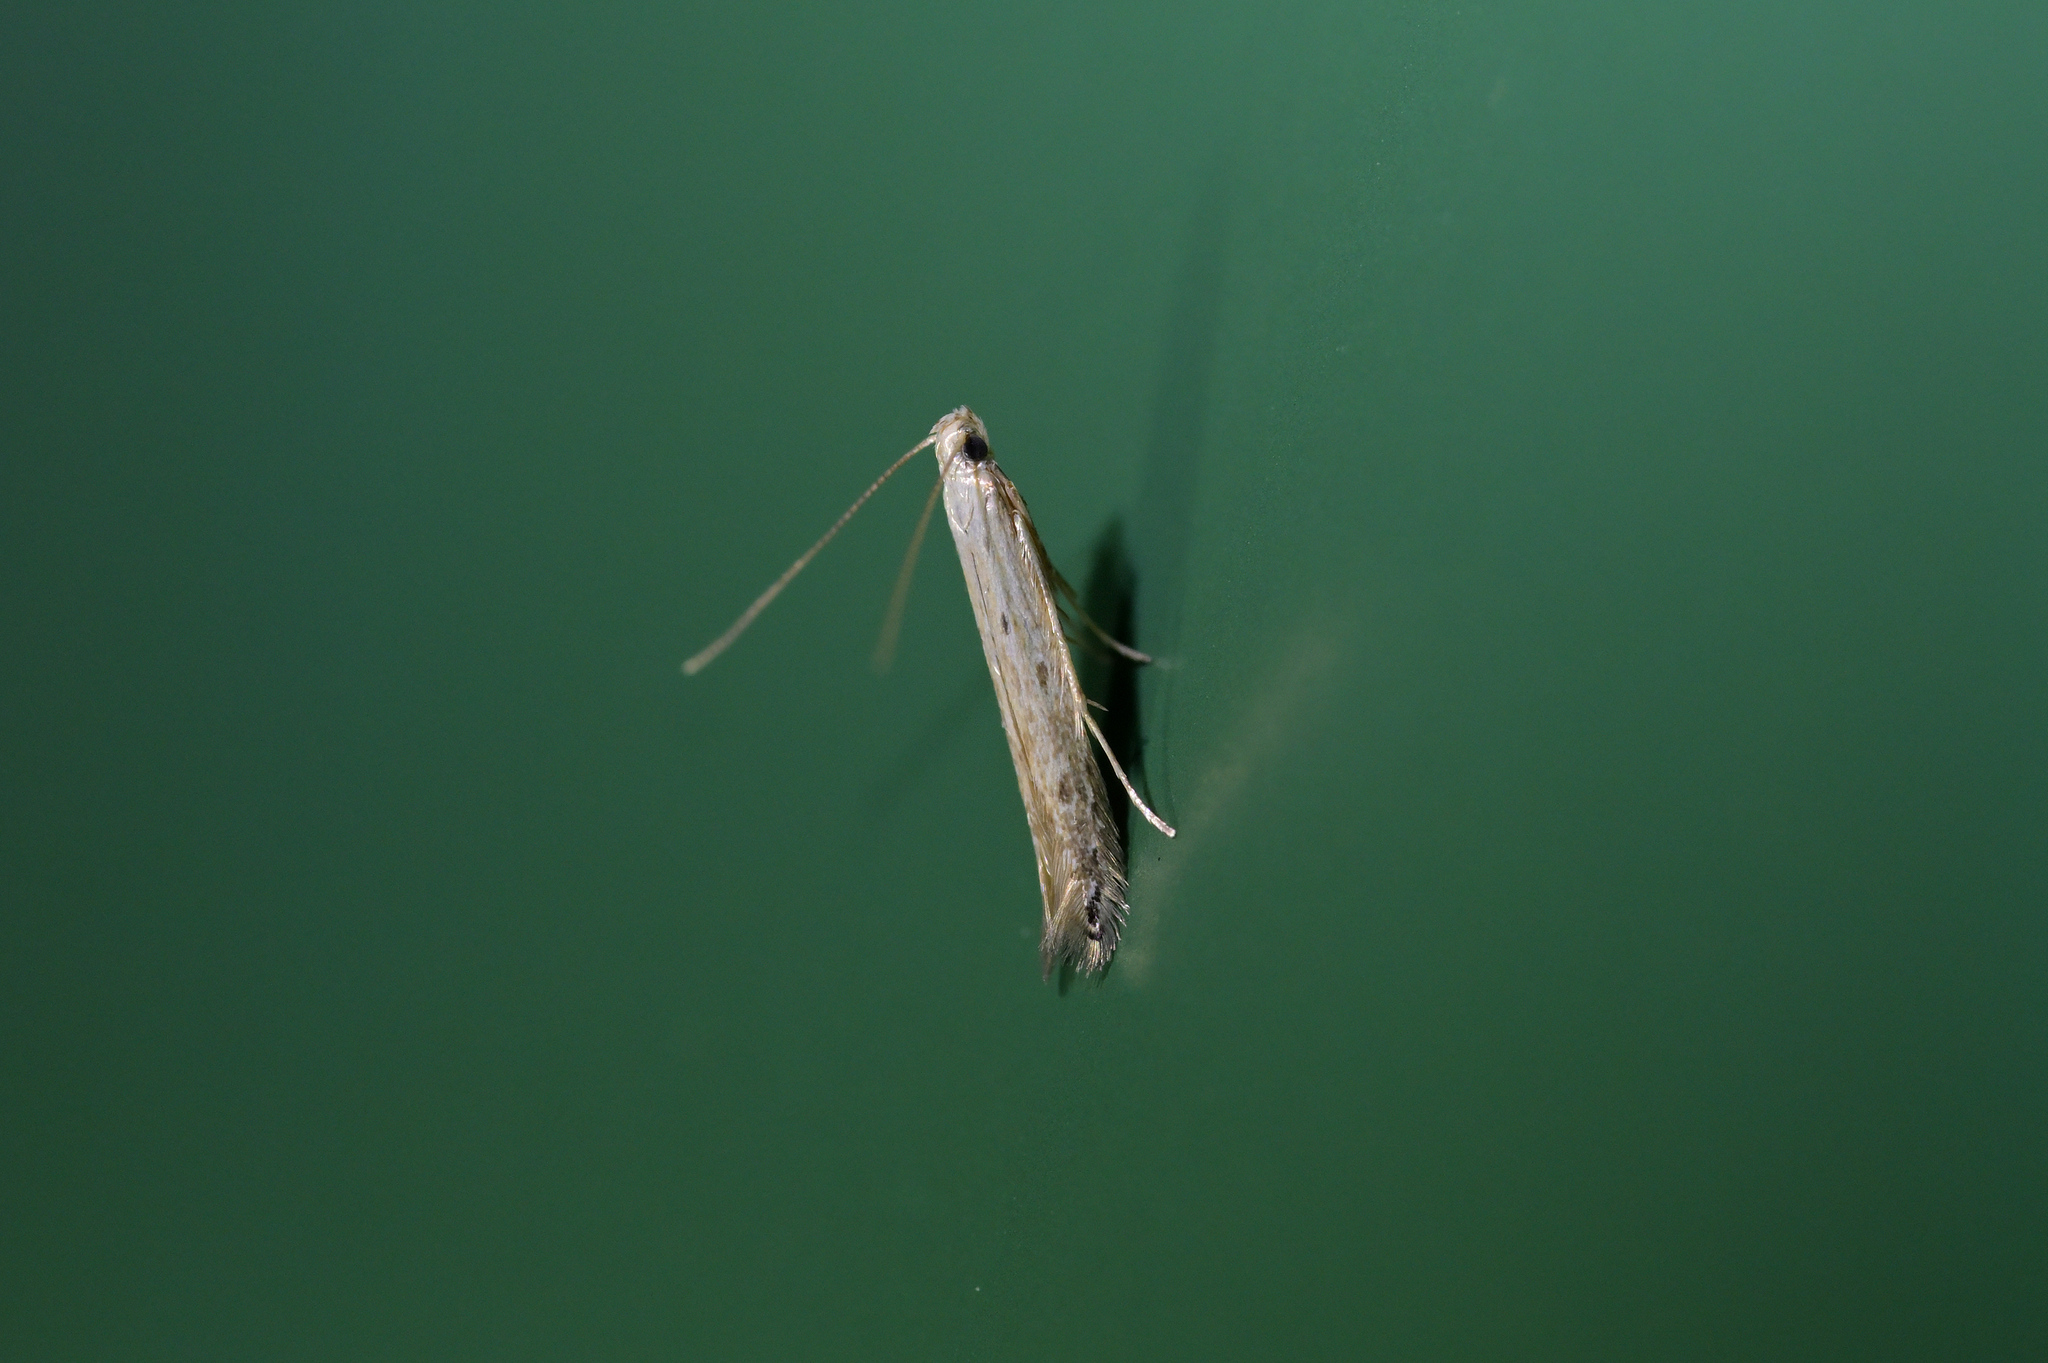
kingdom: Animalia
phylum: Arthropoda
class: Insecta
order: Lepidoptera
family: Batrachedridae
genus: Batrachedra
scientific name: Batrachedra psithyra
